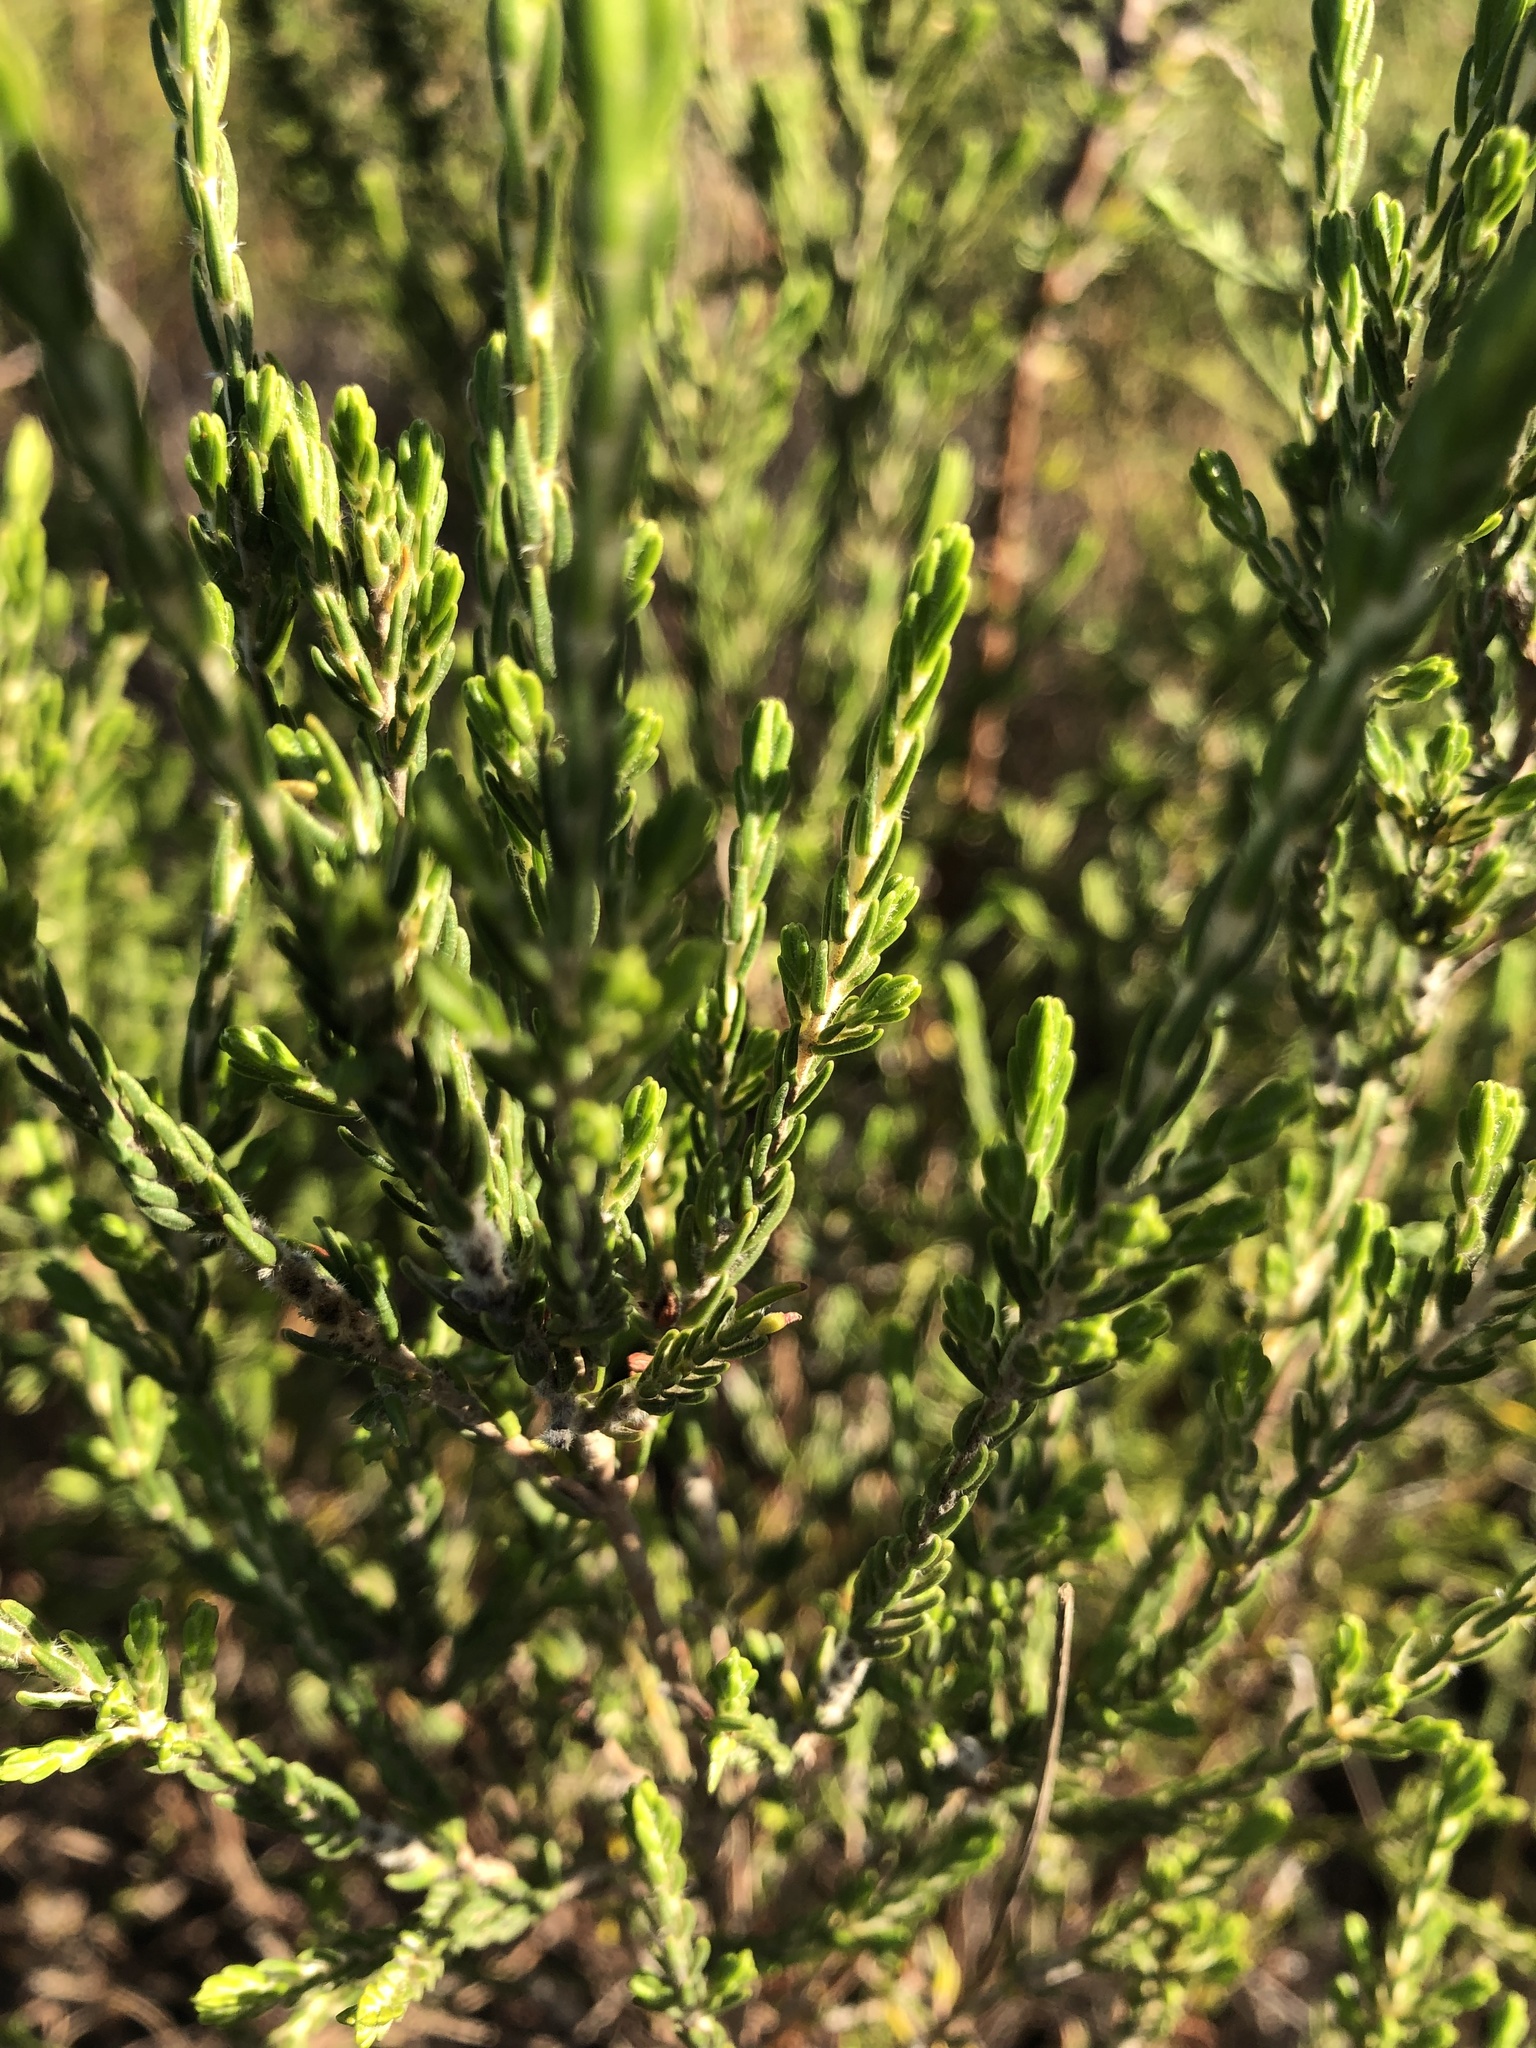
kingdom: Plantae
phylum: Tracheophyta
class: Magnoliopsida
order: Malvales
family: Thymelaeaceae
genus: Passerina
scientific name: Passerina corymbosa
